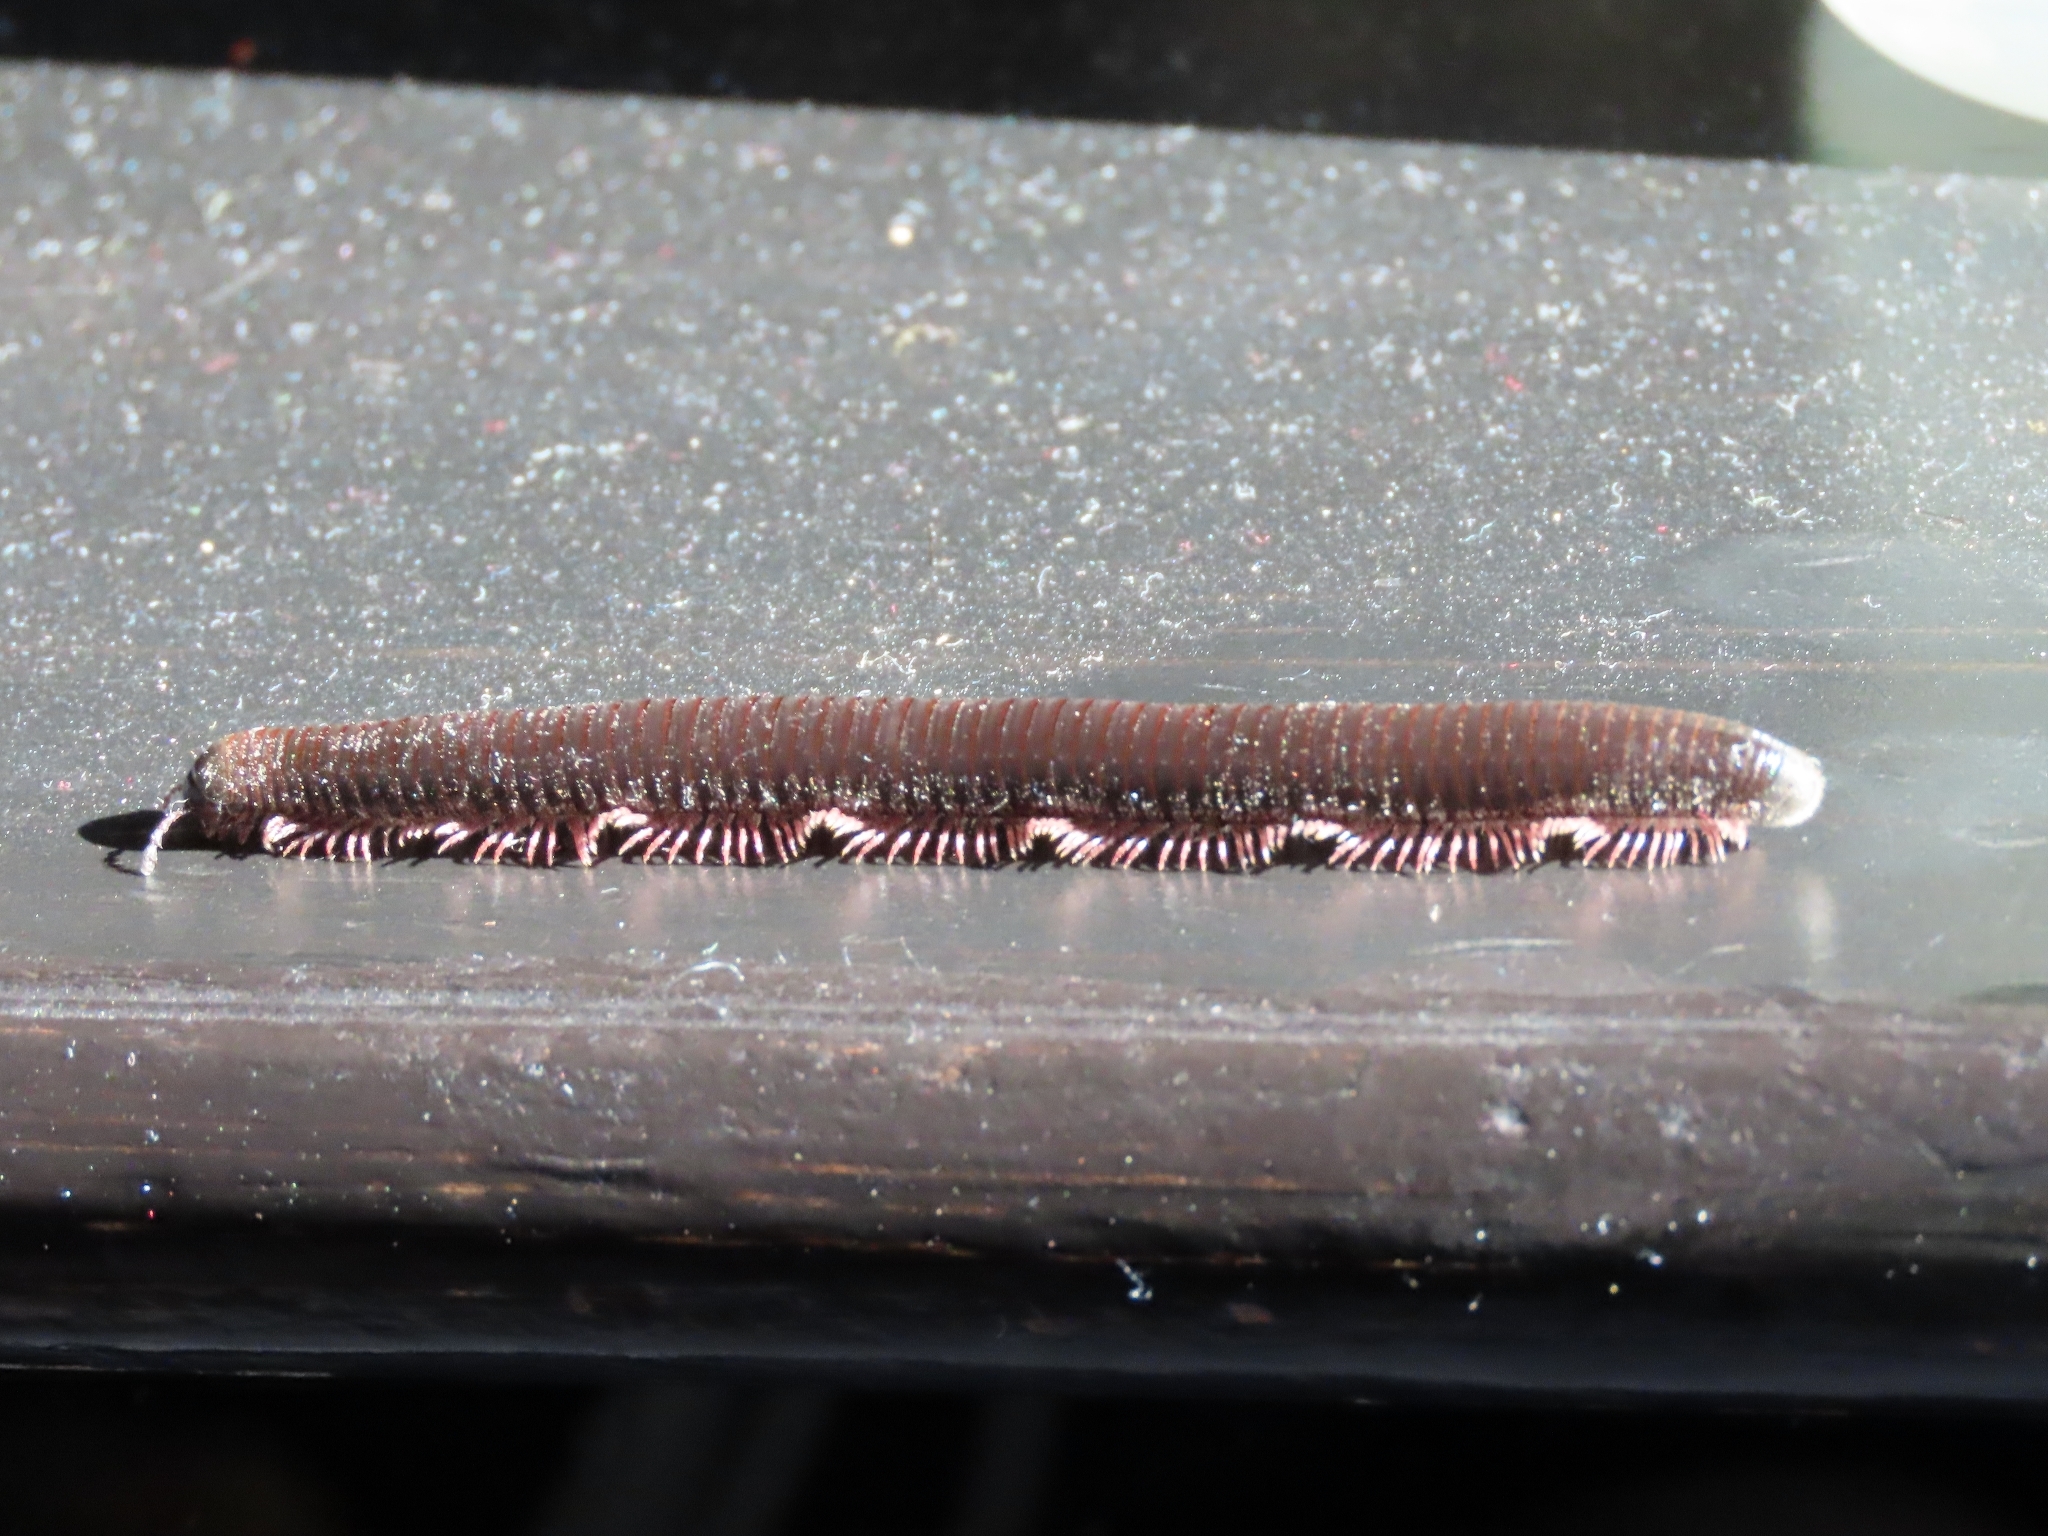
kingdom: Animalia
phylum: Arthropoda
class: Diplopoda
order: Julida
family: Julidae
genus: Pachyiulus
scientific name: Pachyiulus oenologus
